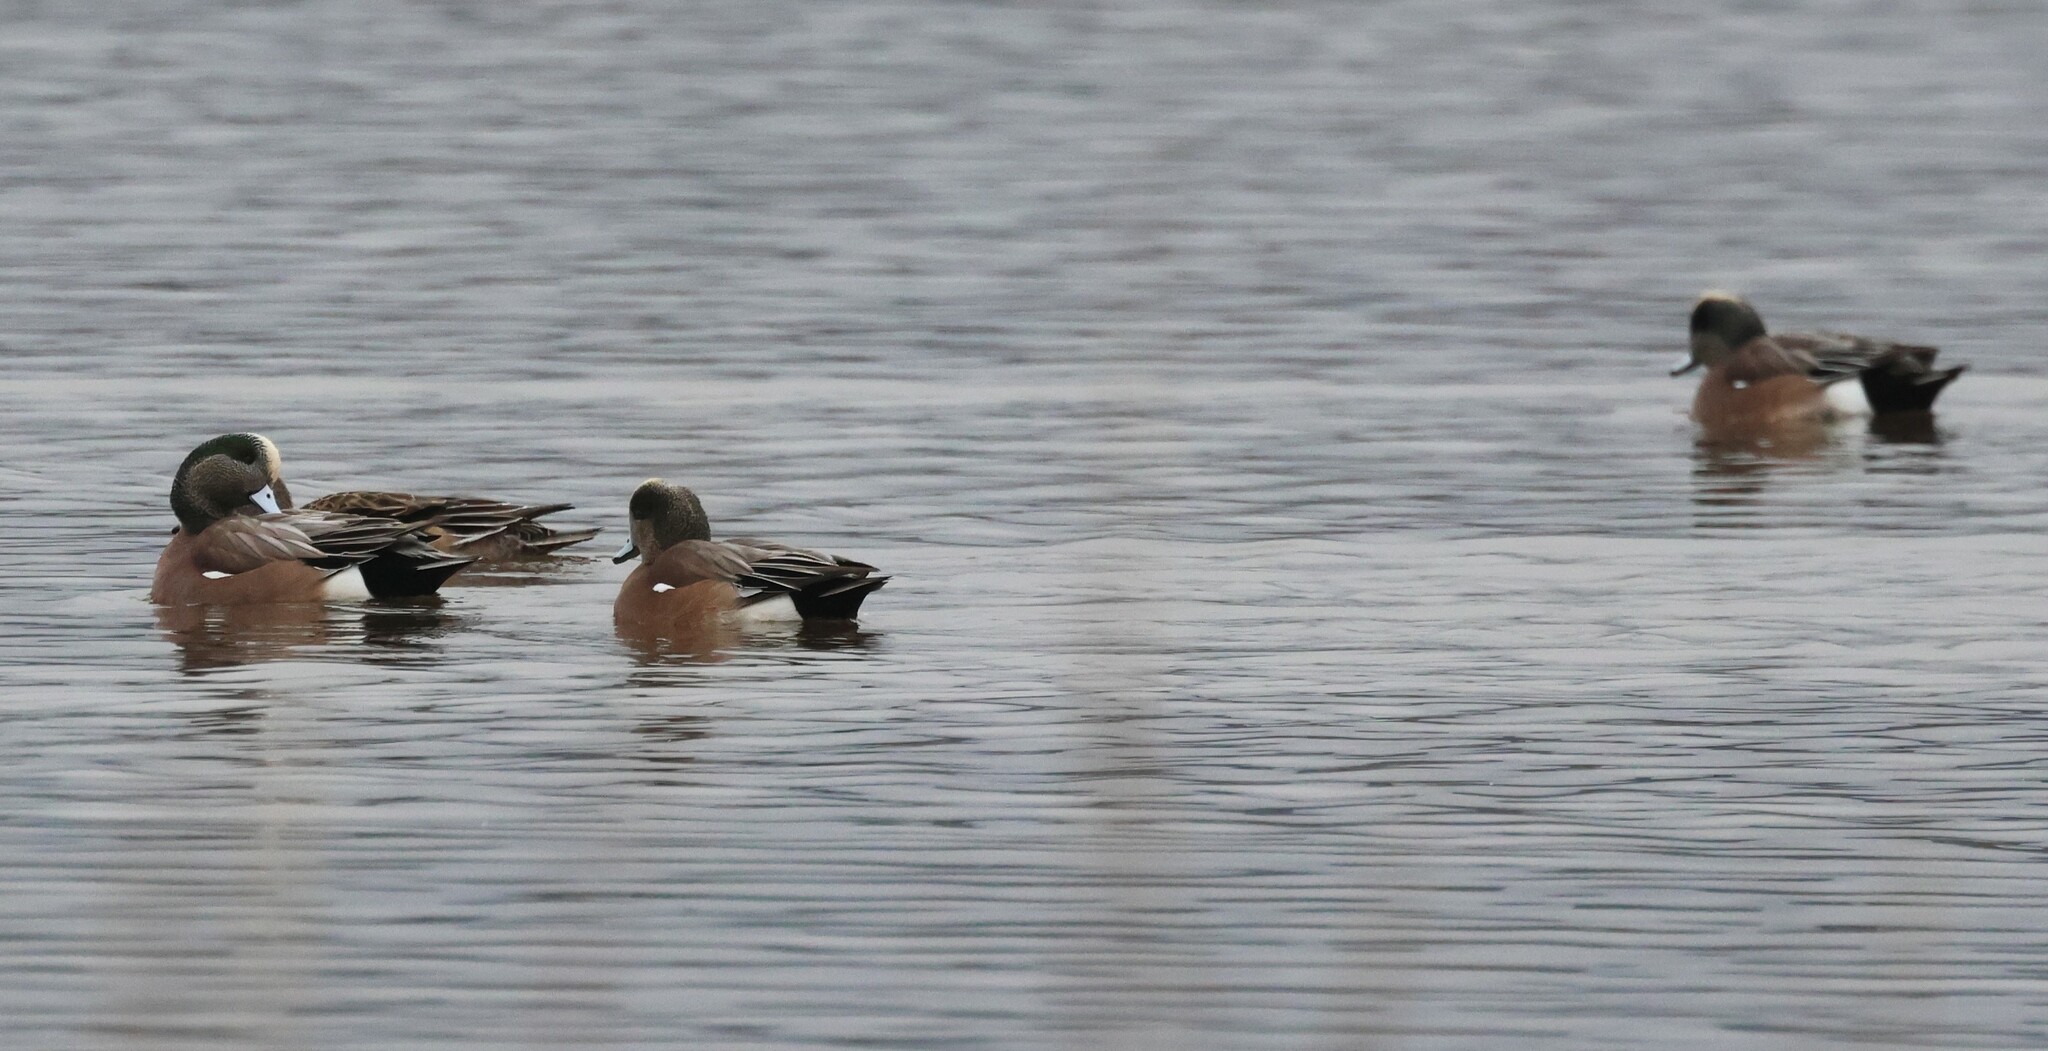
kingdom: Animalia
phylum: Chordata
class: Aves
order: Anseriformes
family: Anatidae
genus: Mareca
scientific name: Mareca americana
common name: American wigeon
